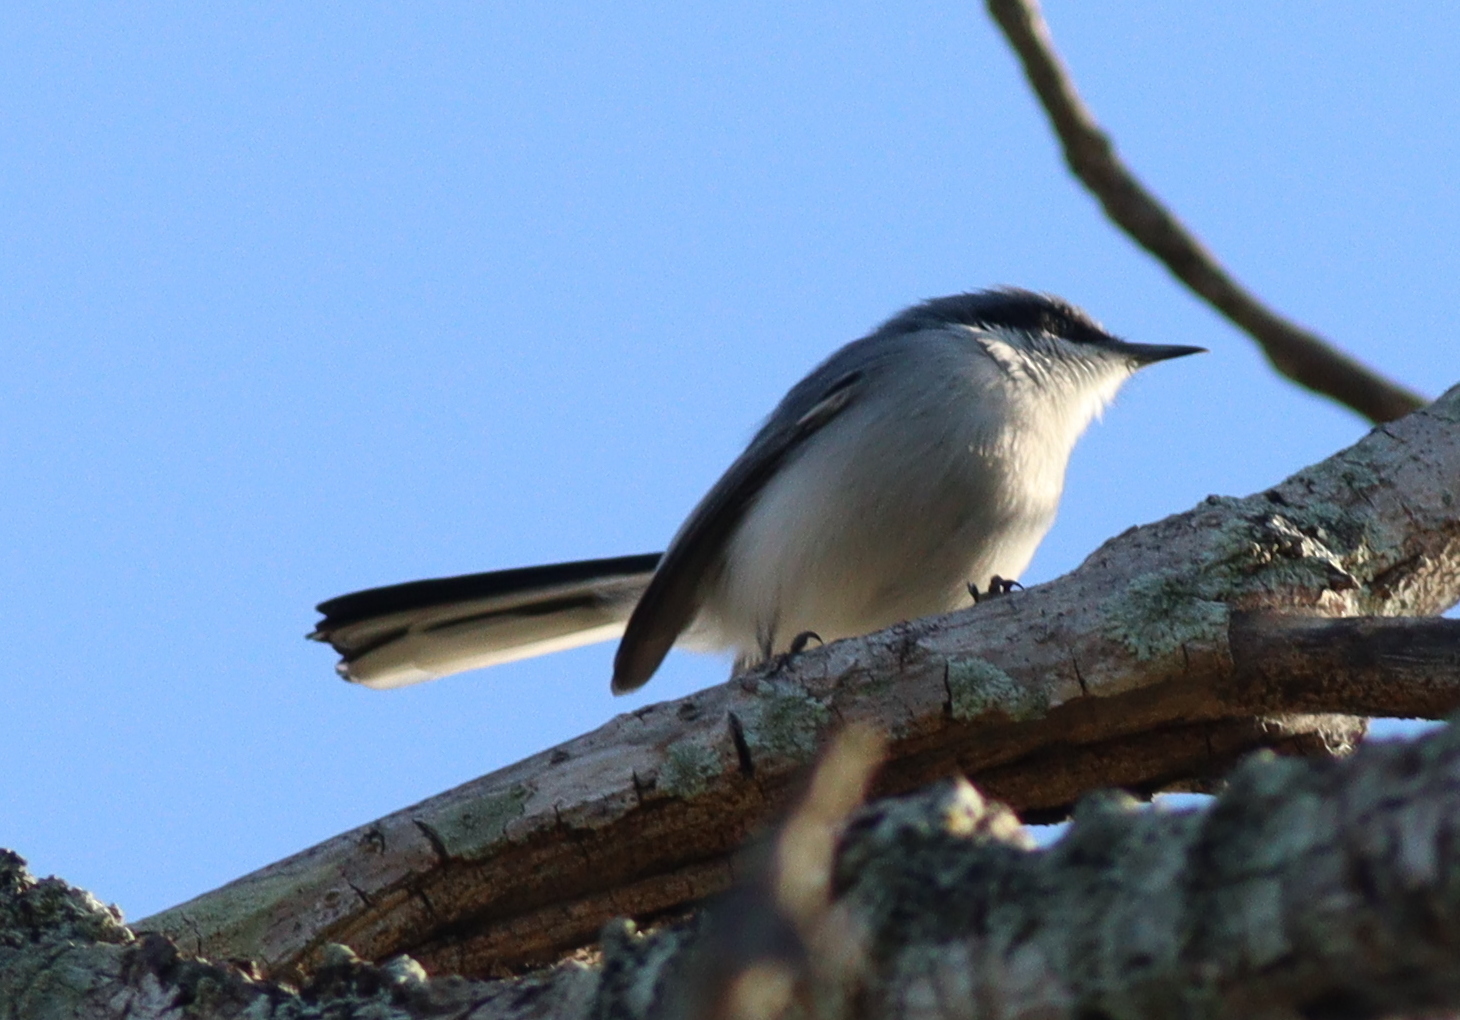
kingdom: Animalia
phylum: Chordata
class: Aves
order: Passeriformes
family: Polioptilidae
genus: Polioptila
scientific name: Polioptila dumicola
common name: Masked gnatcatcher
